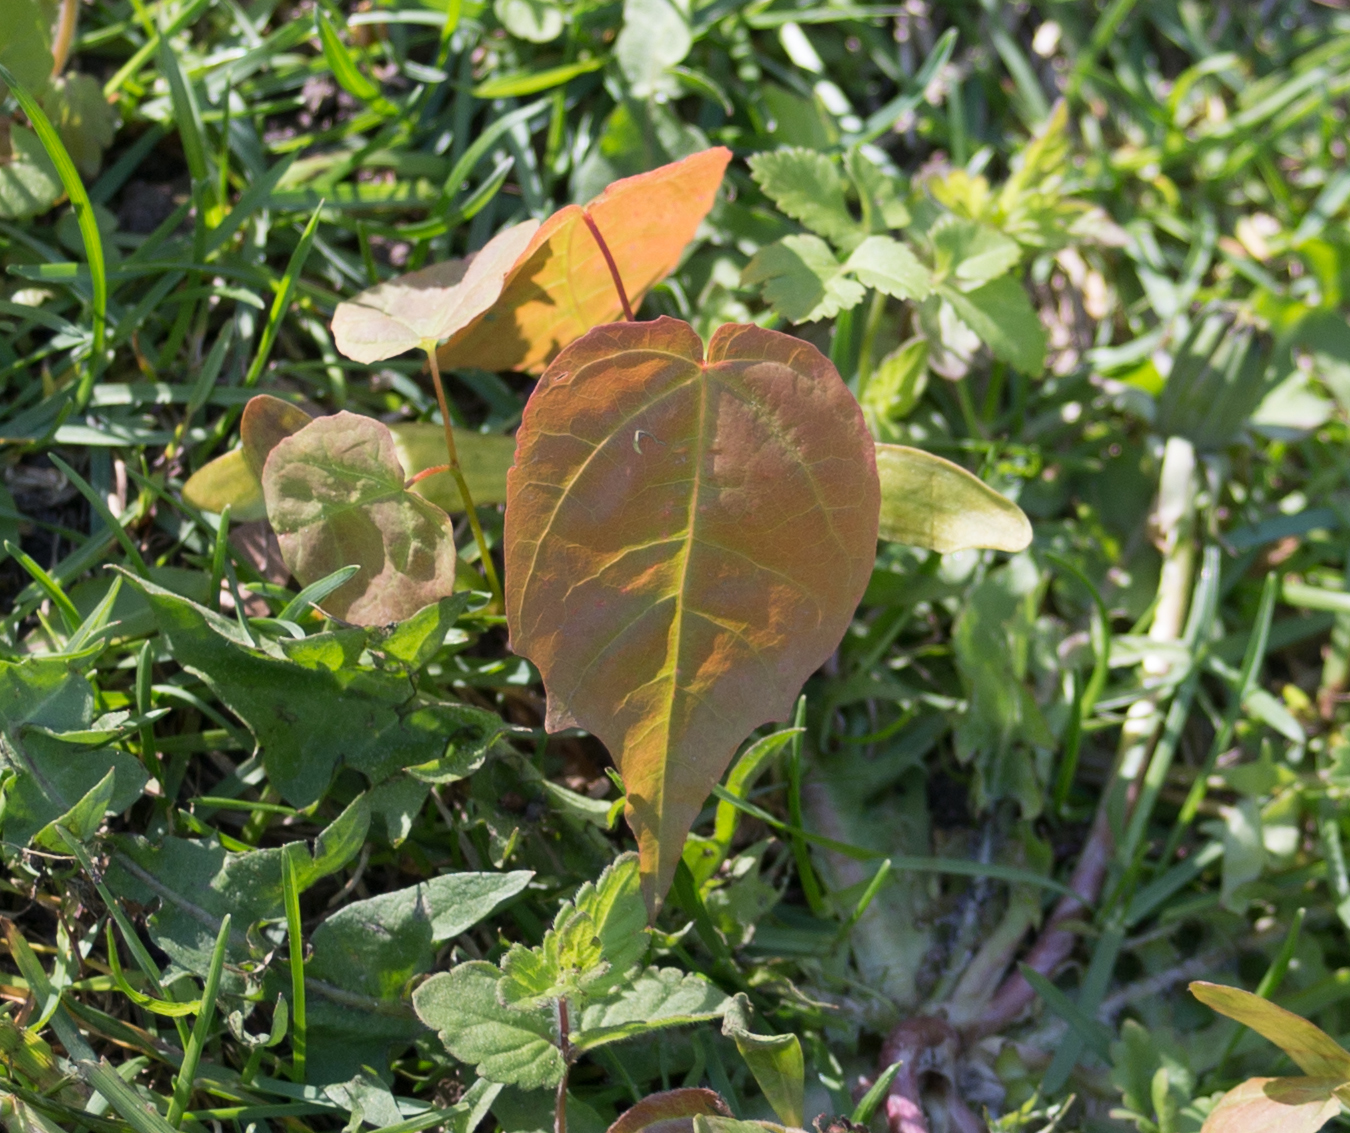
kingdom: Plantae
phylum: Tracheophyta
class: Magnoliopsida
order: Sapindales
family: Sapindaceae
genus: Acer
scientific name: Acer platanoides
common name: Norway maple
